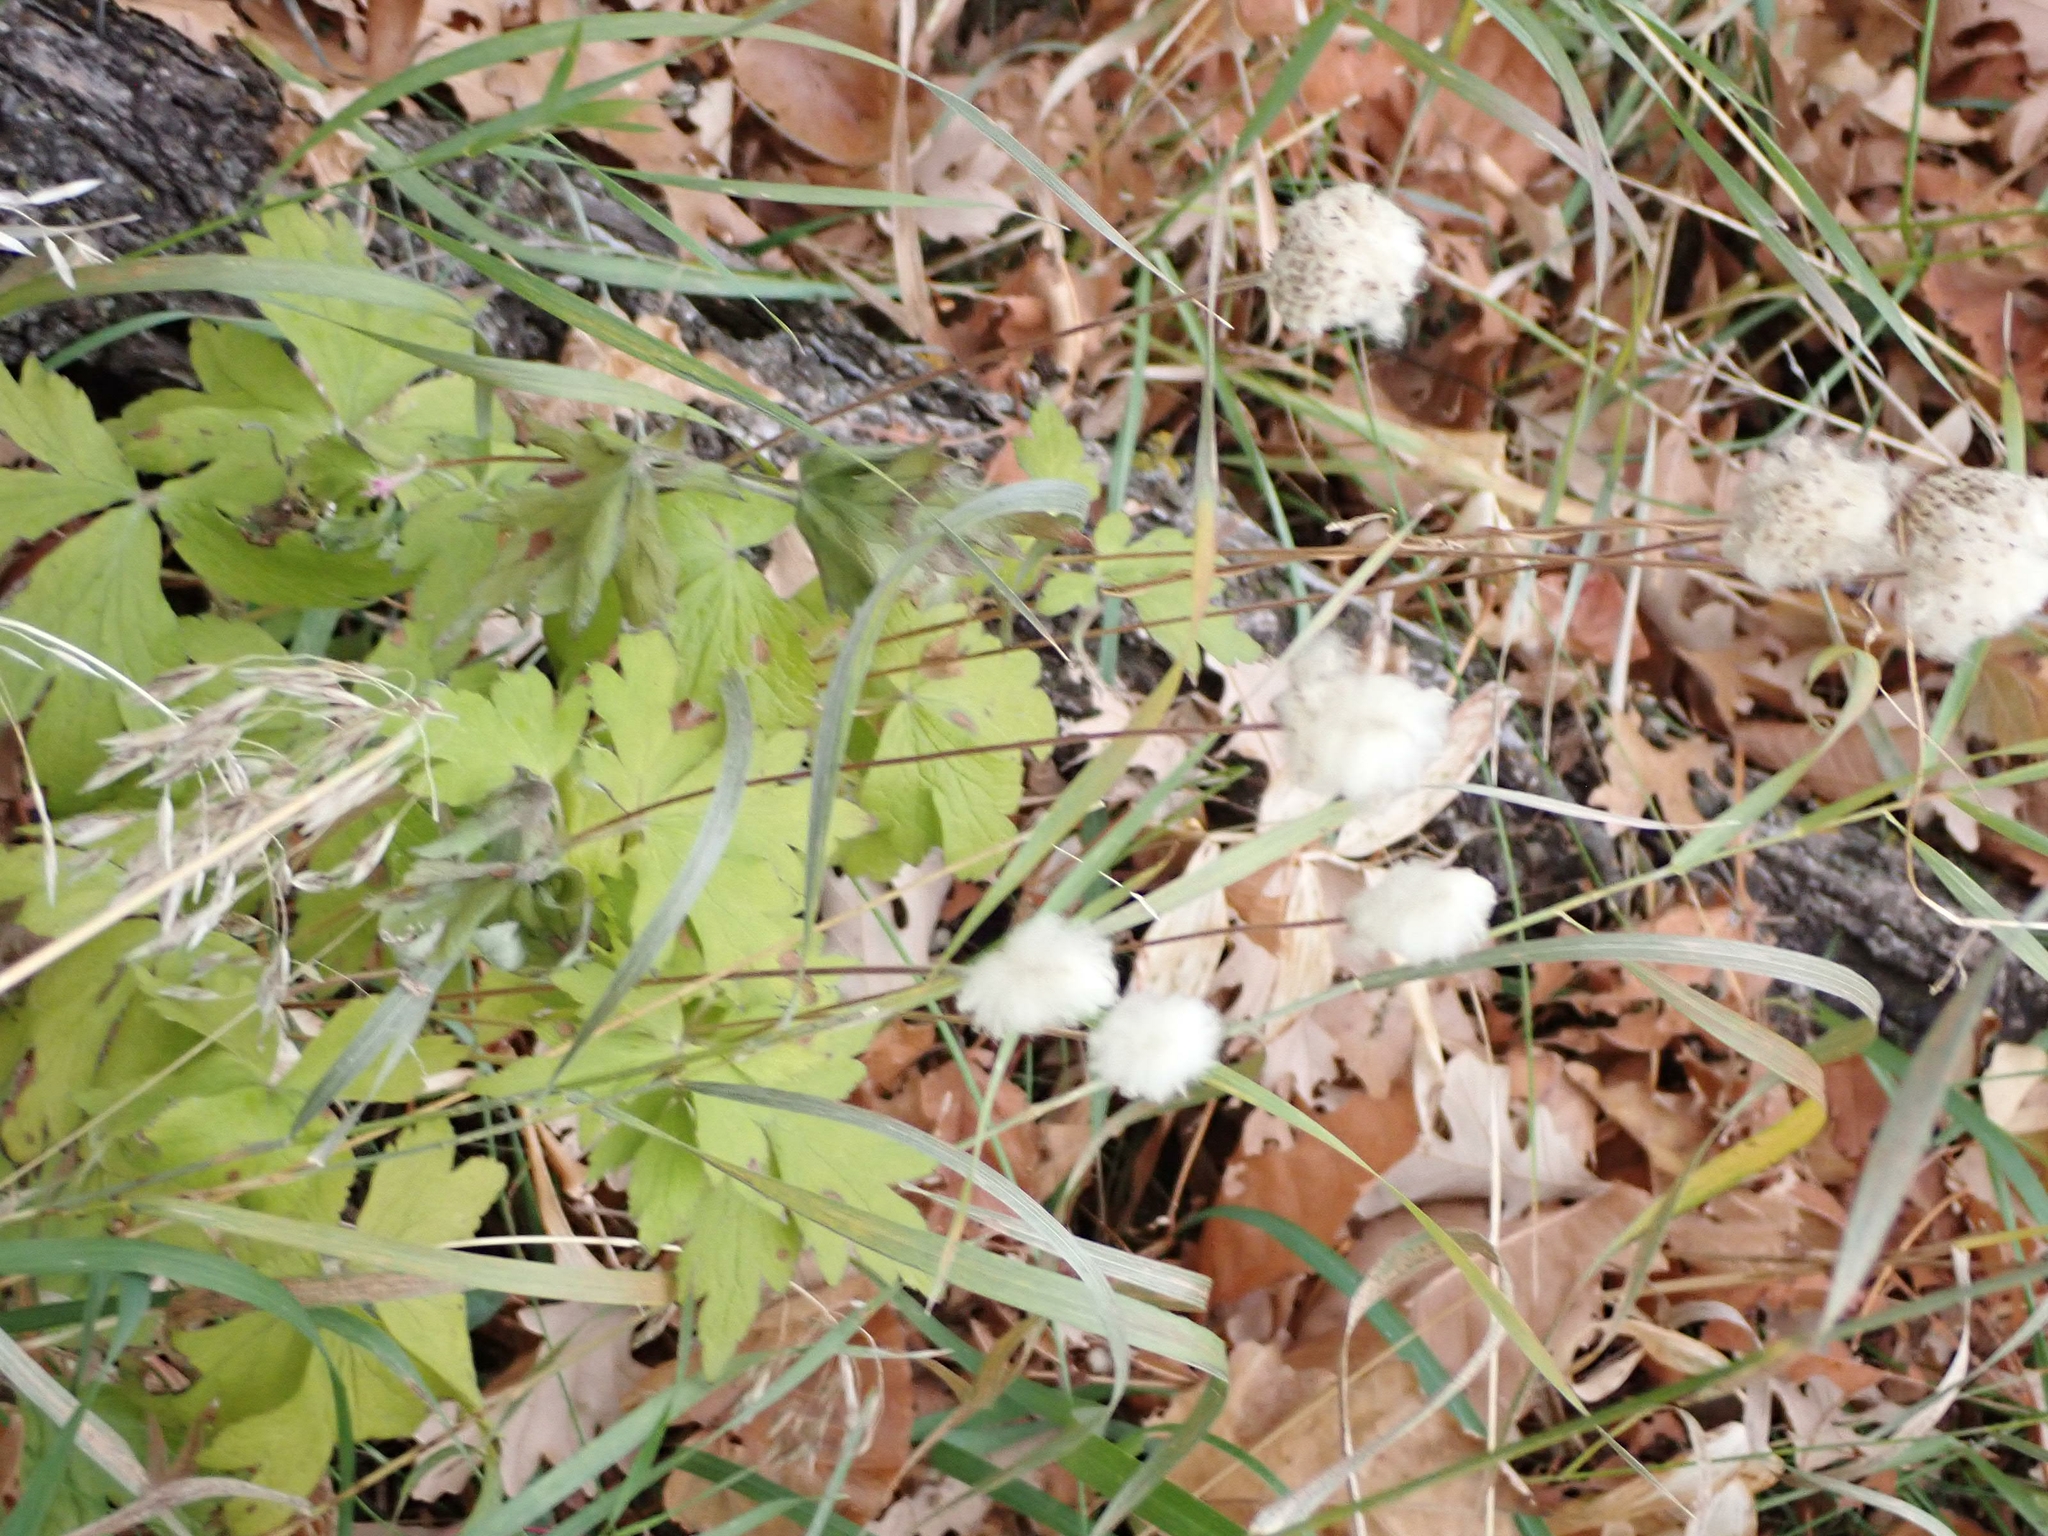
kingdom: Plantae
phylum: Tracheophyta
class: Magnoliopsida
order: Ranunculales
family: Ranunculaceae
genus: Anemone
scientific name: Anemone cylindrica
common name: Candle anemone
